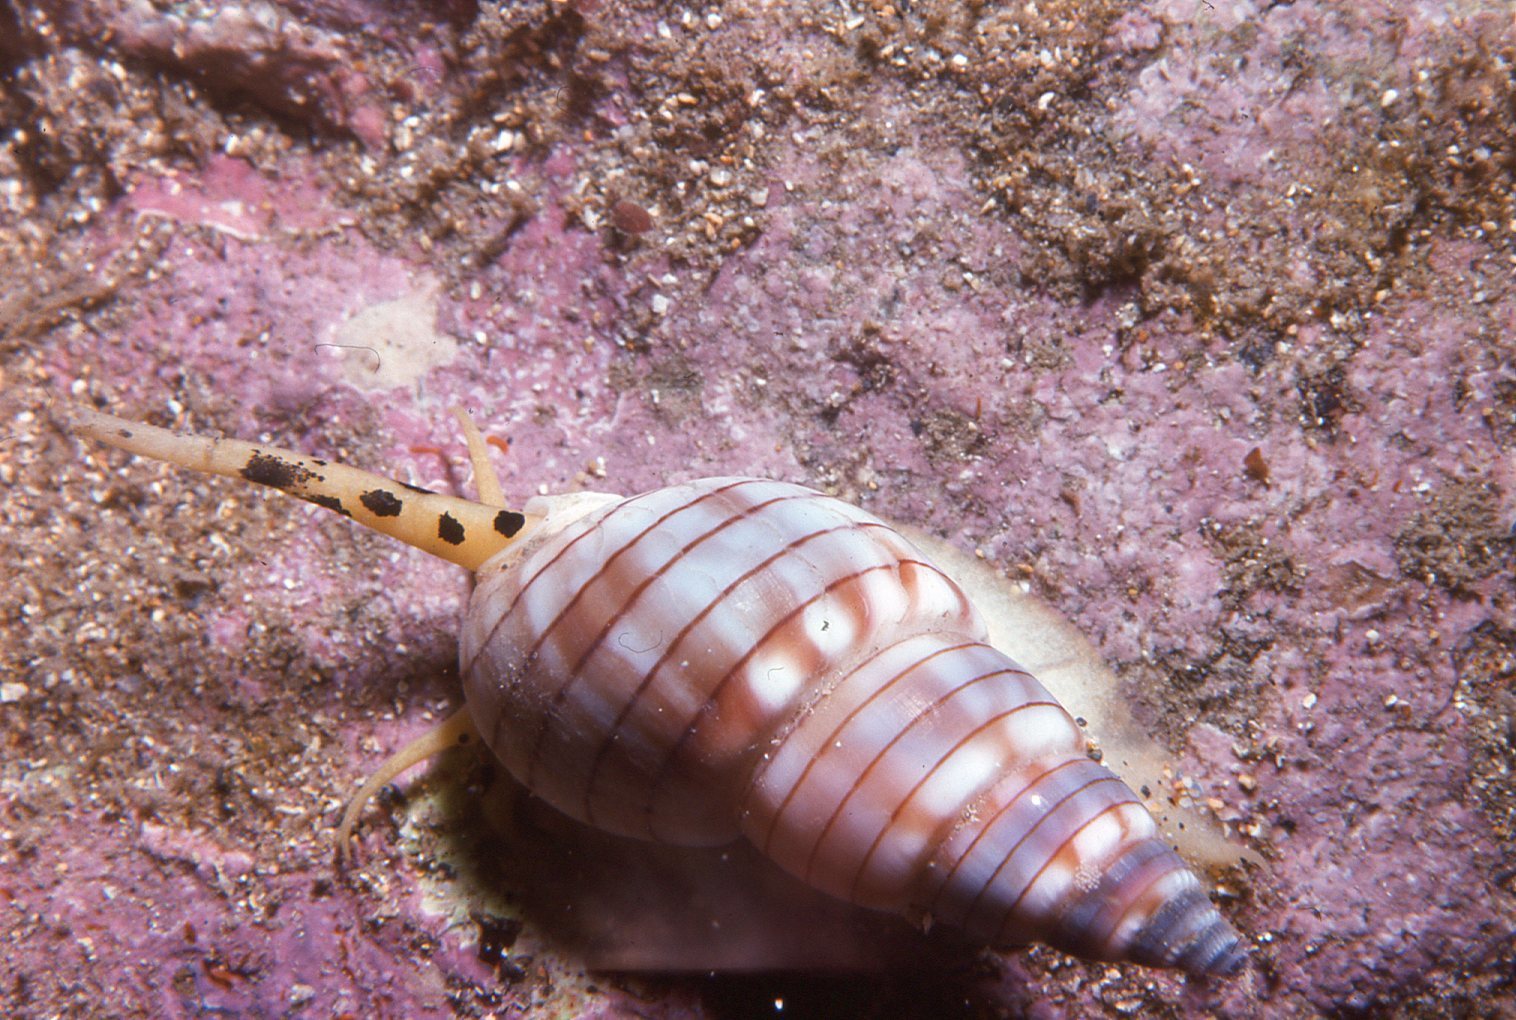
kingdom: Animalia
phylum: Mollusca
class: Gastropoda
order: Neogastropoda
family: Nassariidae
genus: Nassarius
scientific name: Nassarius particeps
